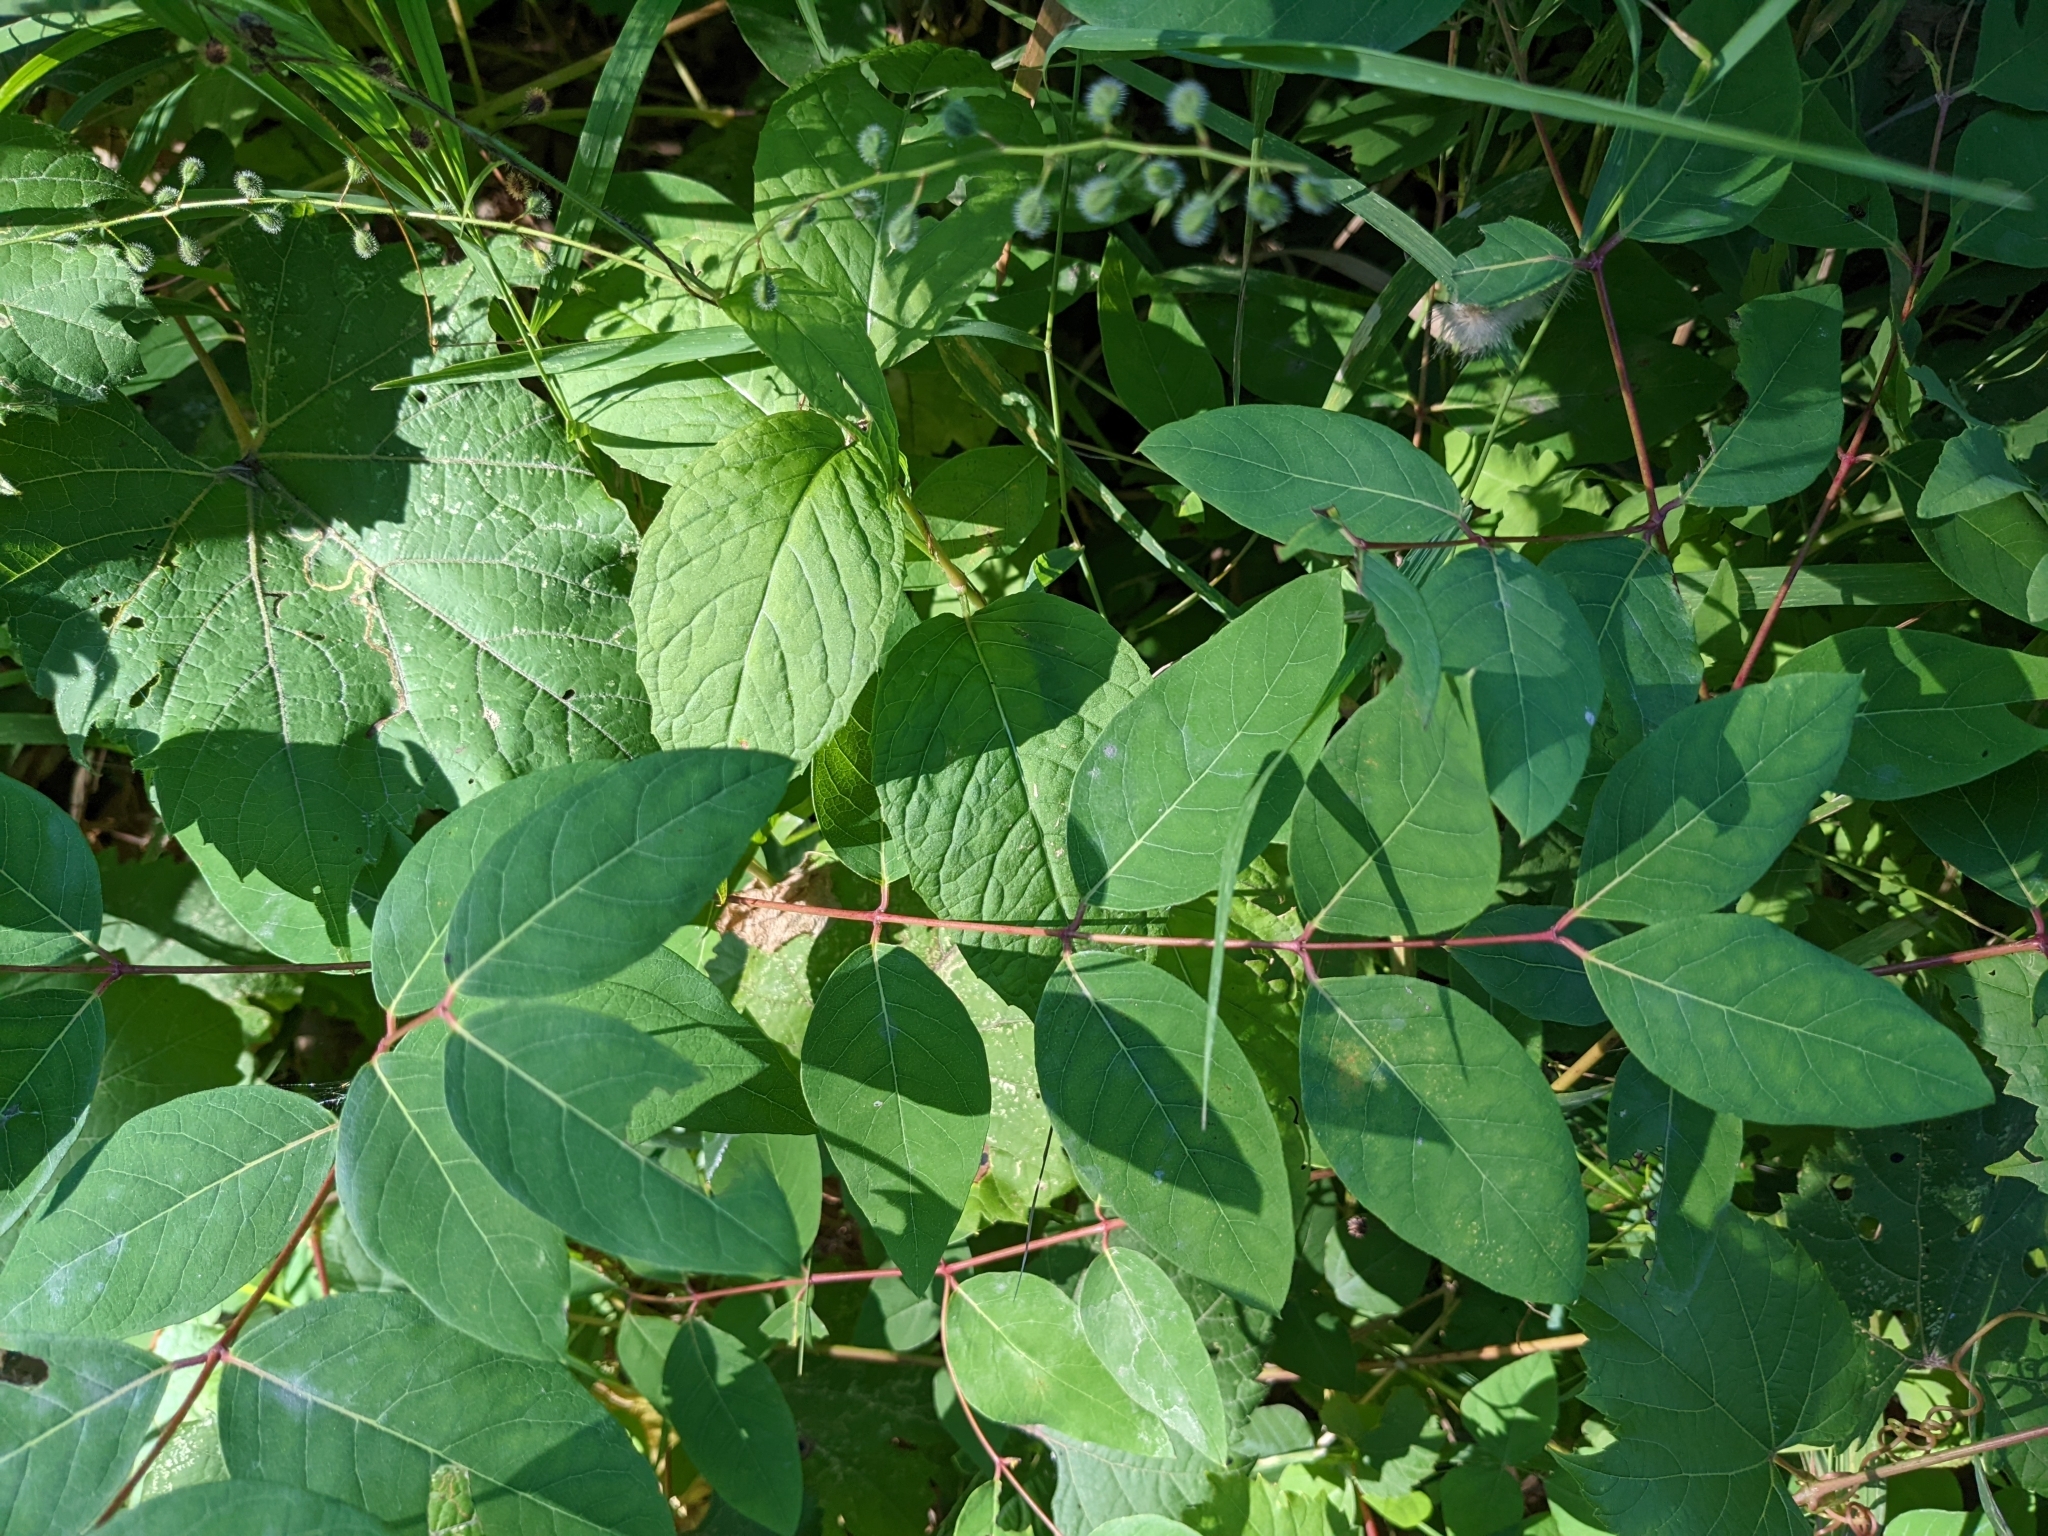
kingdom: Plantae
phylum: Tracheophyta
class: Magnoliopsida
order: Gentianales
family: Apocynaceae
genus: Apocynum
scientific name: Apocynum androsaemifolium
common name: Spreading dogbane
